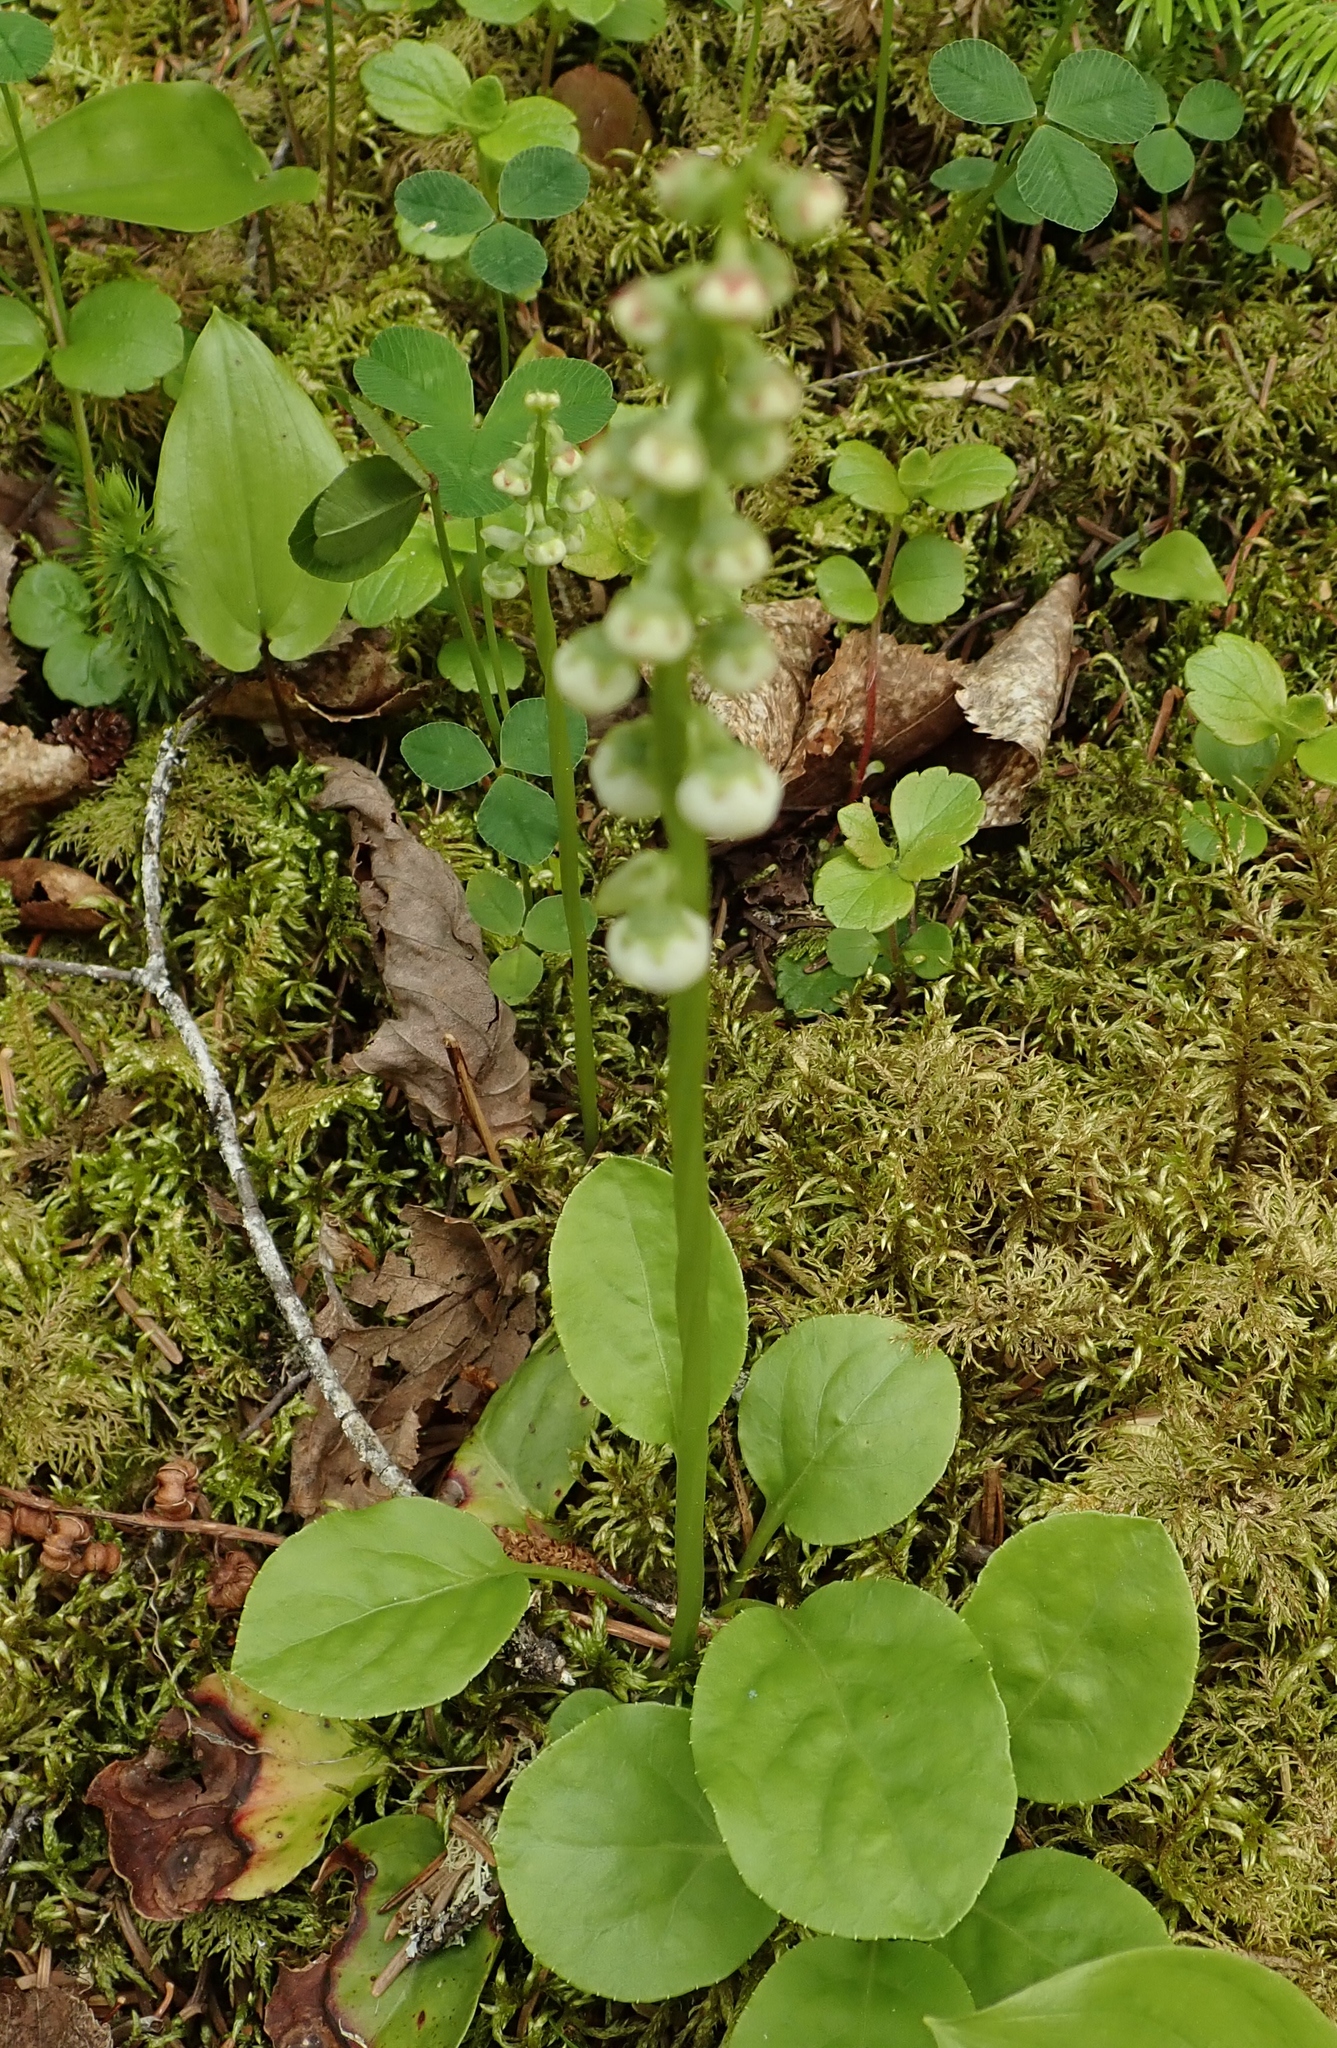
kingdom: Plantae
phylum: Tracheophyta
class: Magnoliopsida
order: Ericales
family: Ericaceae
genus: Pyrola
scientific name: Pyrola elliptica
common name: Shinleaf
